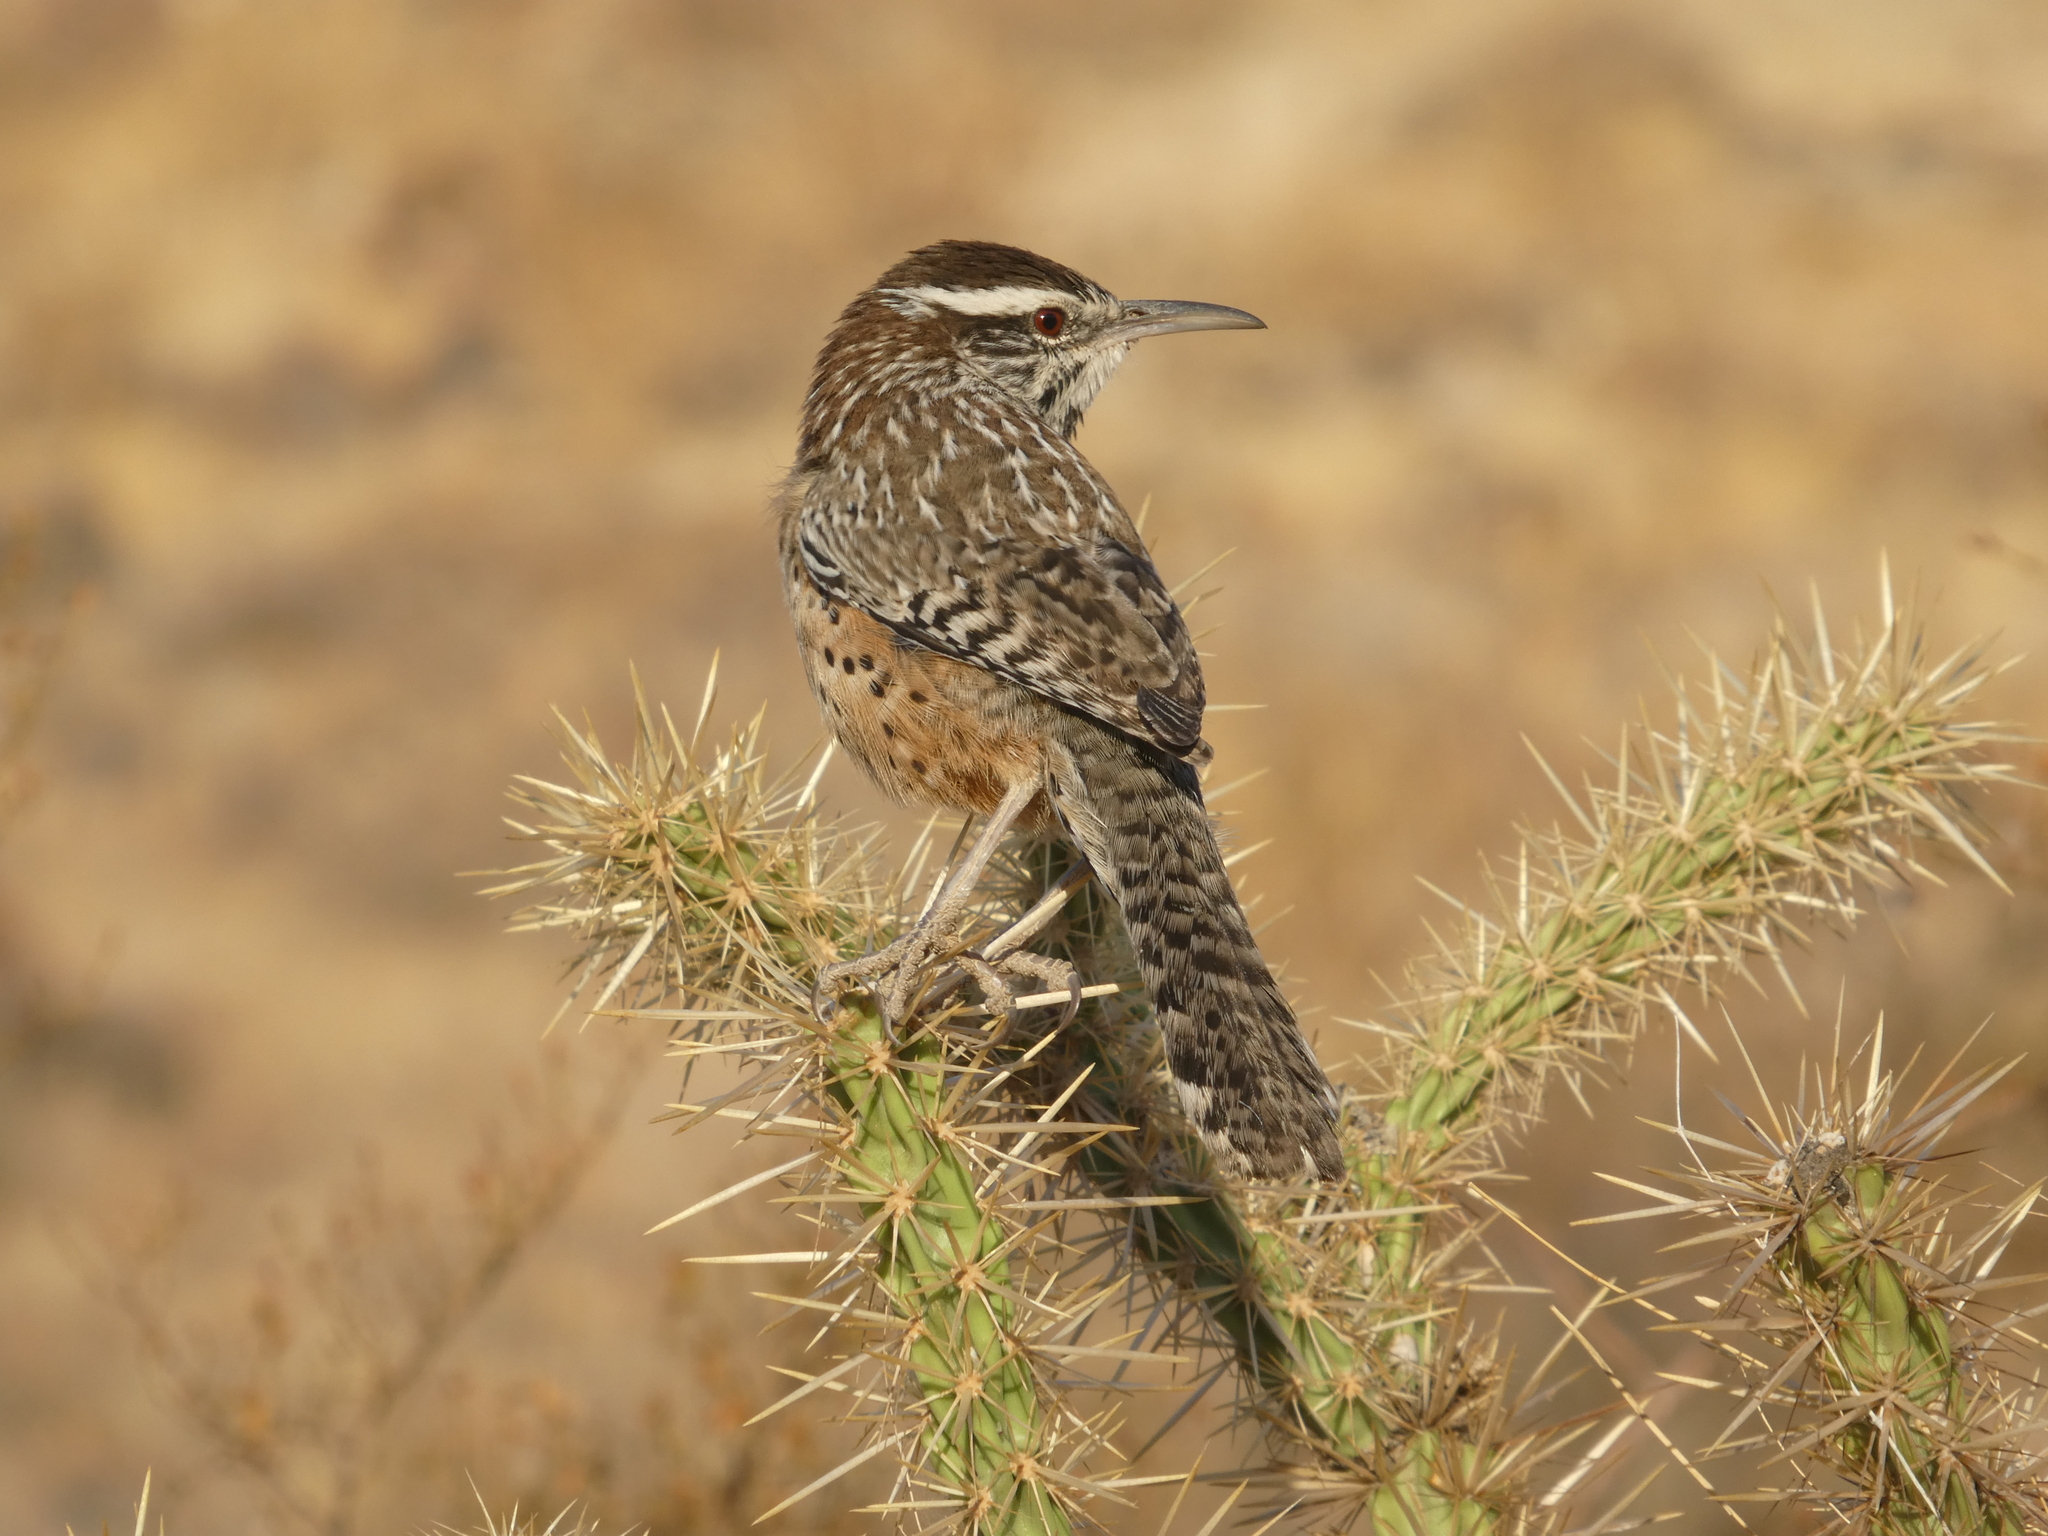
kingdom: Animalia
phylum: Chordata
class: Aves
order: Passeriformes
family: Troglodytidae
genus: Campylorhynchus
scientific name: Campylorhynchus brunneicapillus
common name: Cactus wren
